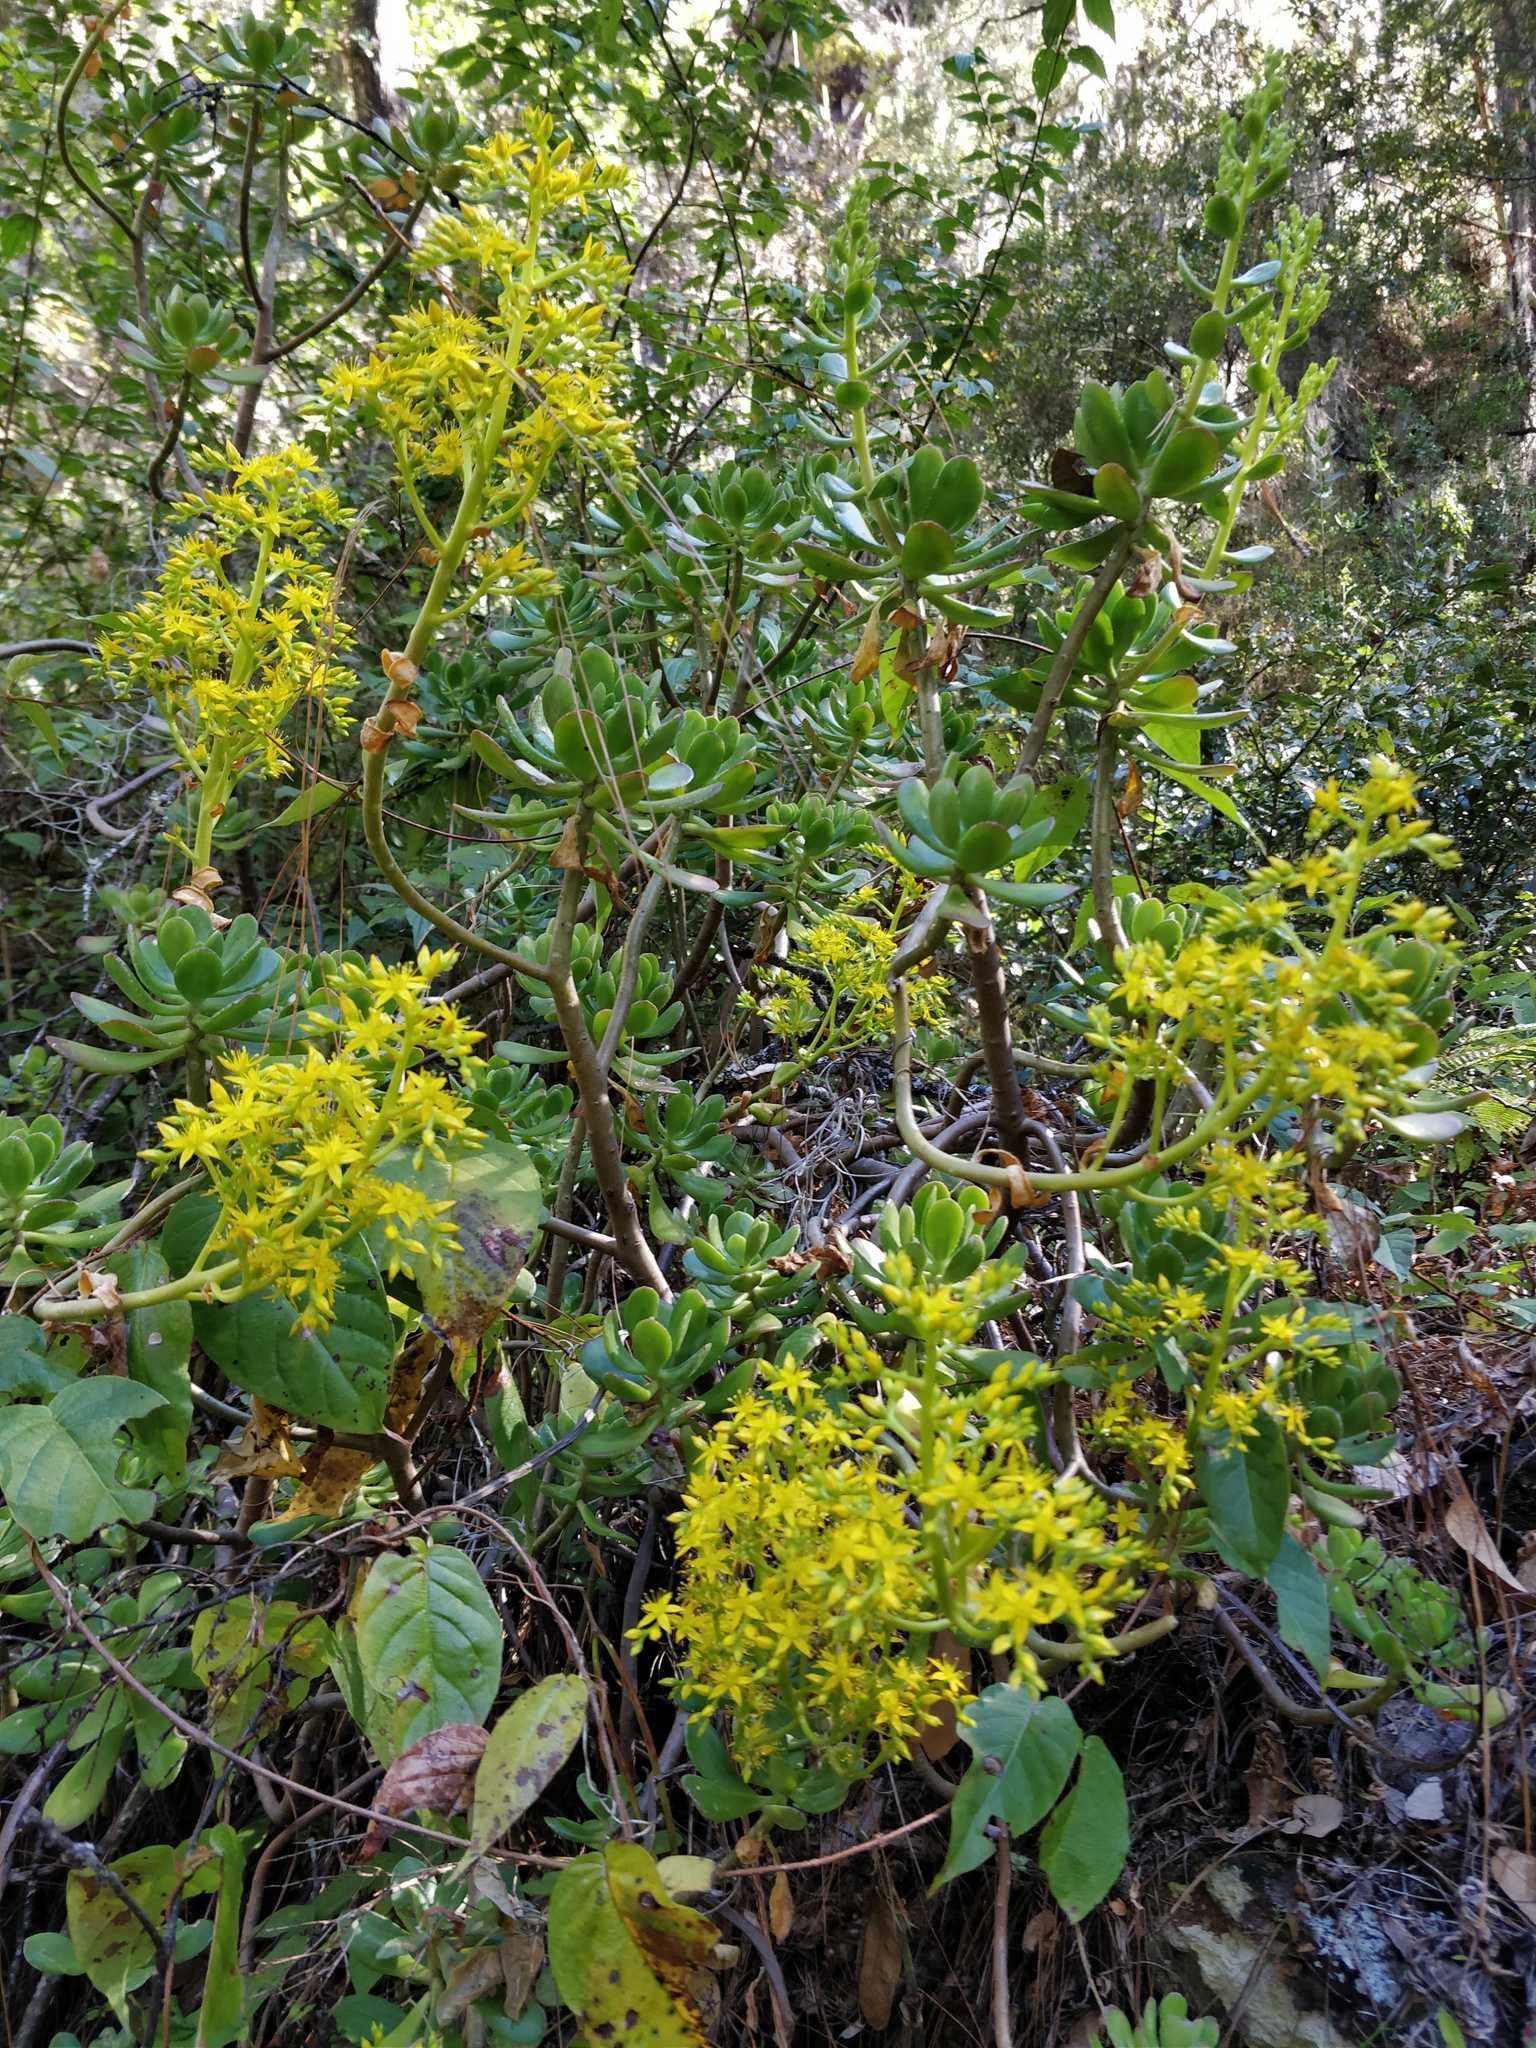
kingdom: Plantae
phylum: Tracheophyta
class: Magnoliopsida
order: Saxifragales
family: Crassulaceae
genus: Sedum
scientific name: Sedum dendroideum
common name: Tree stonecrop
